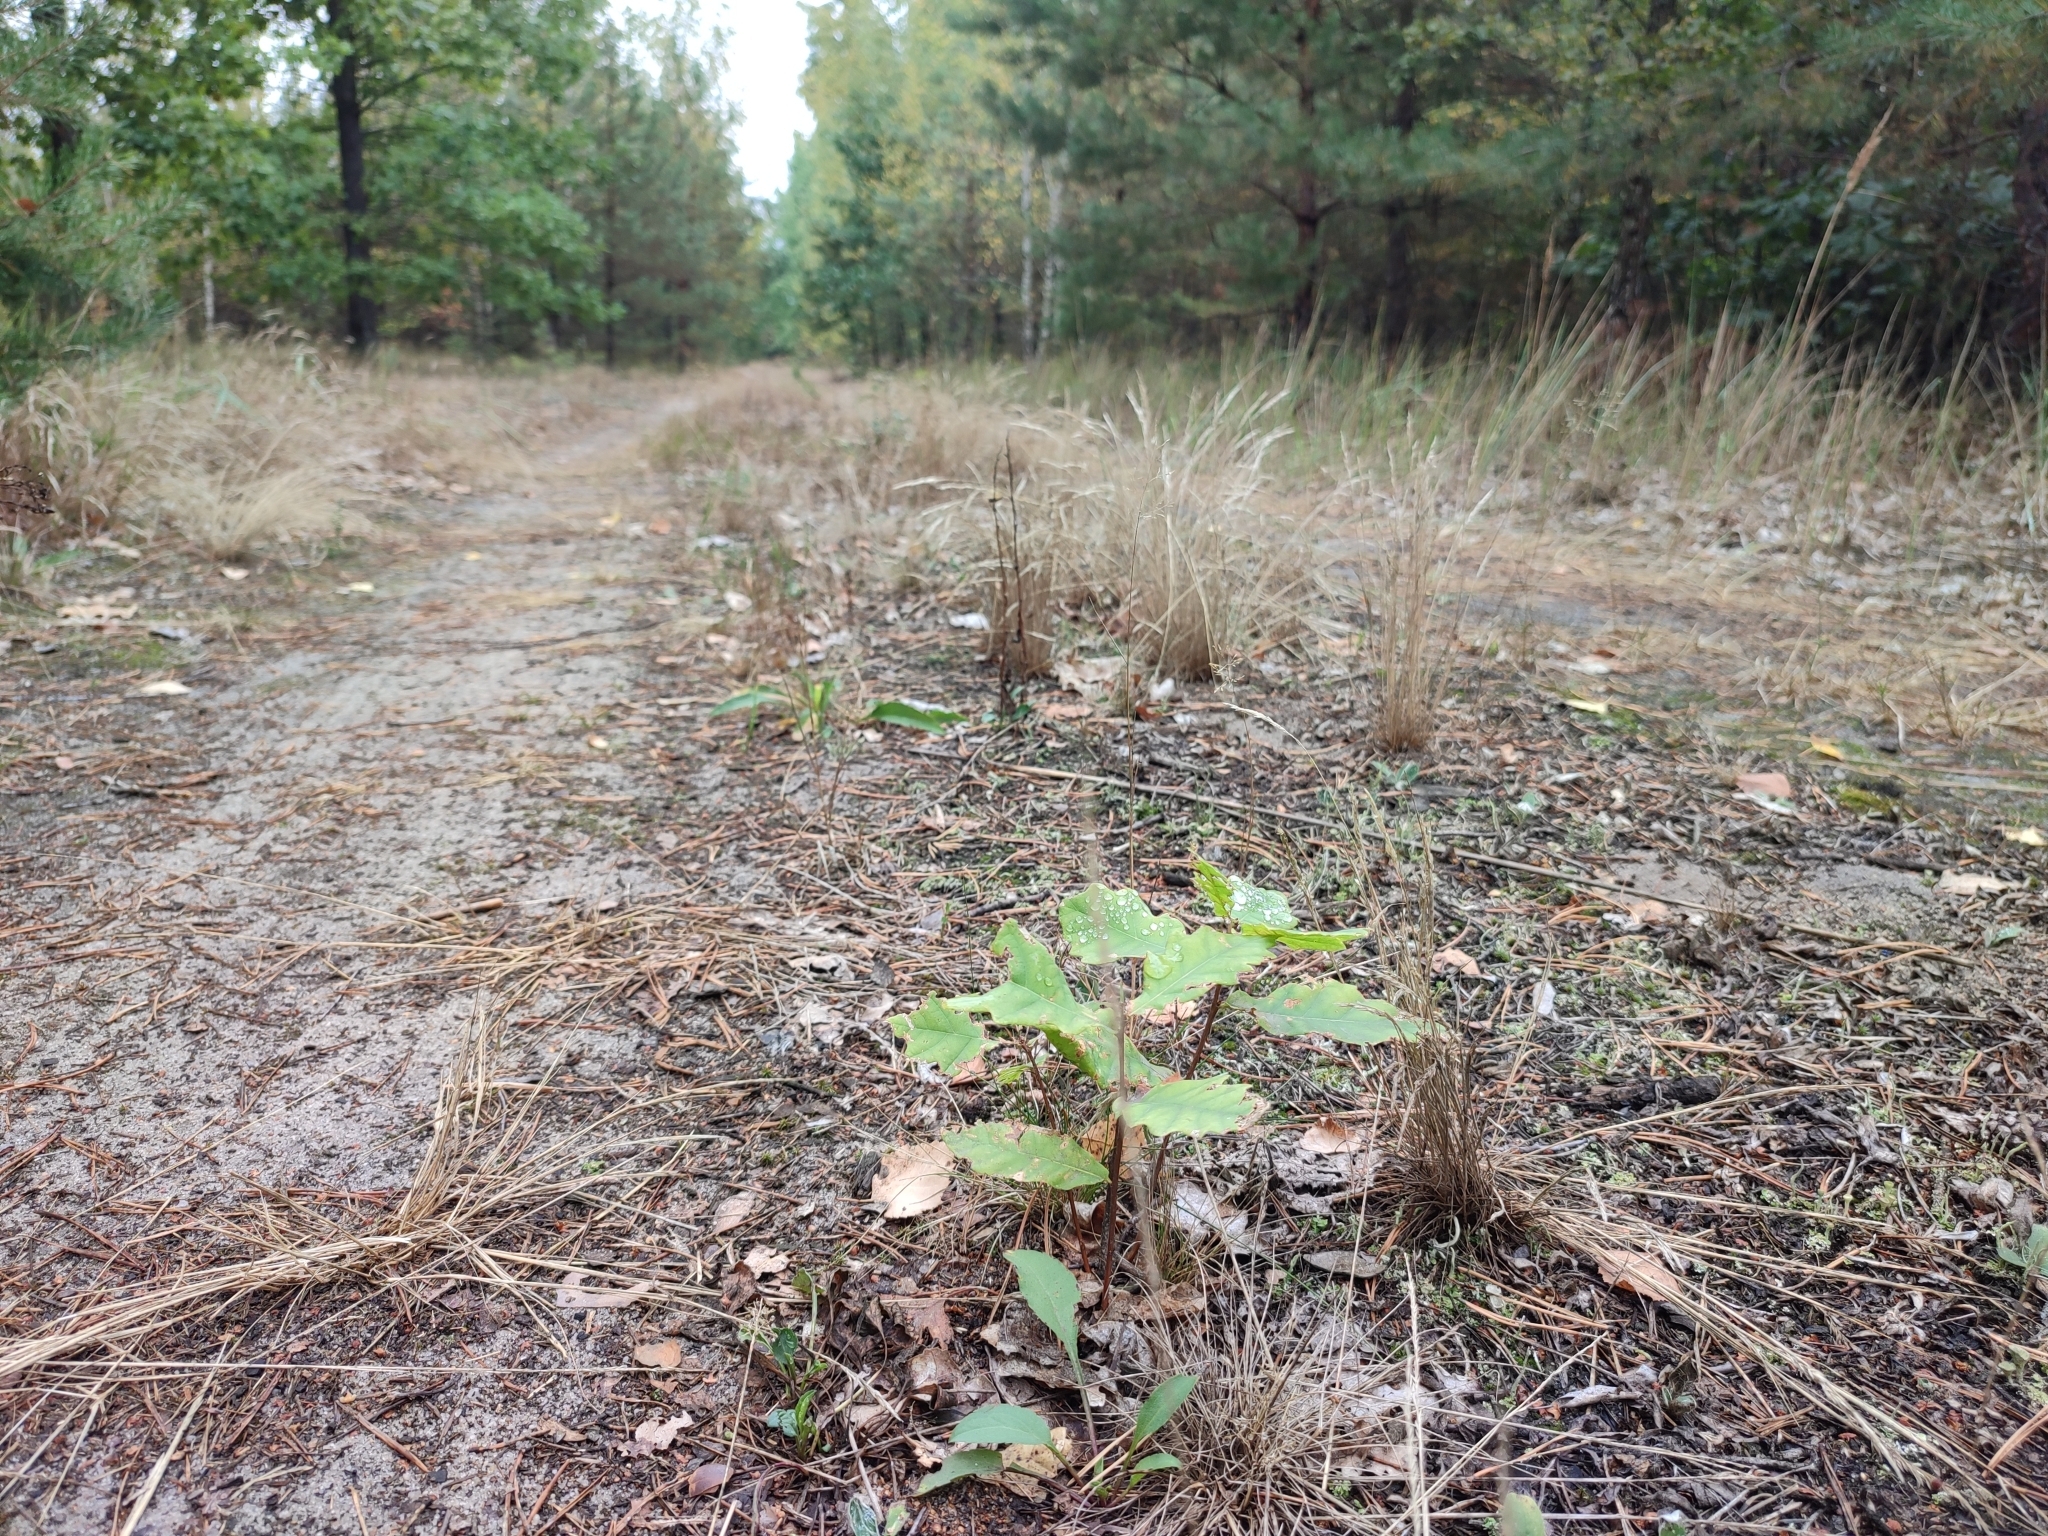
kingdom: Plantae
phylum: Tracheophyta
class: Magnoliopsida
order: Fagales
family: Fagaceae
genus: Quercus
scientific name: Quercus robur
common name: Pedunculate oak
